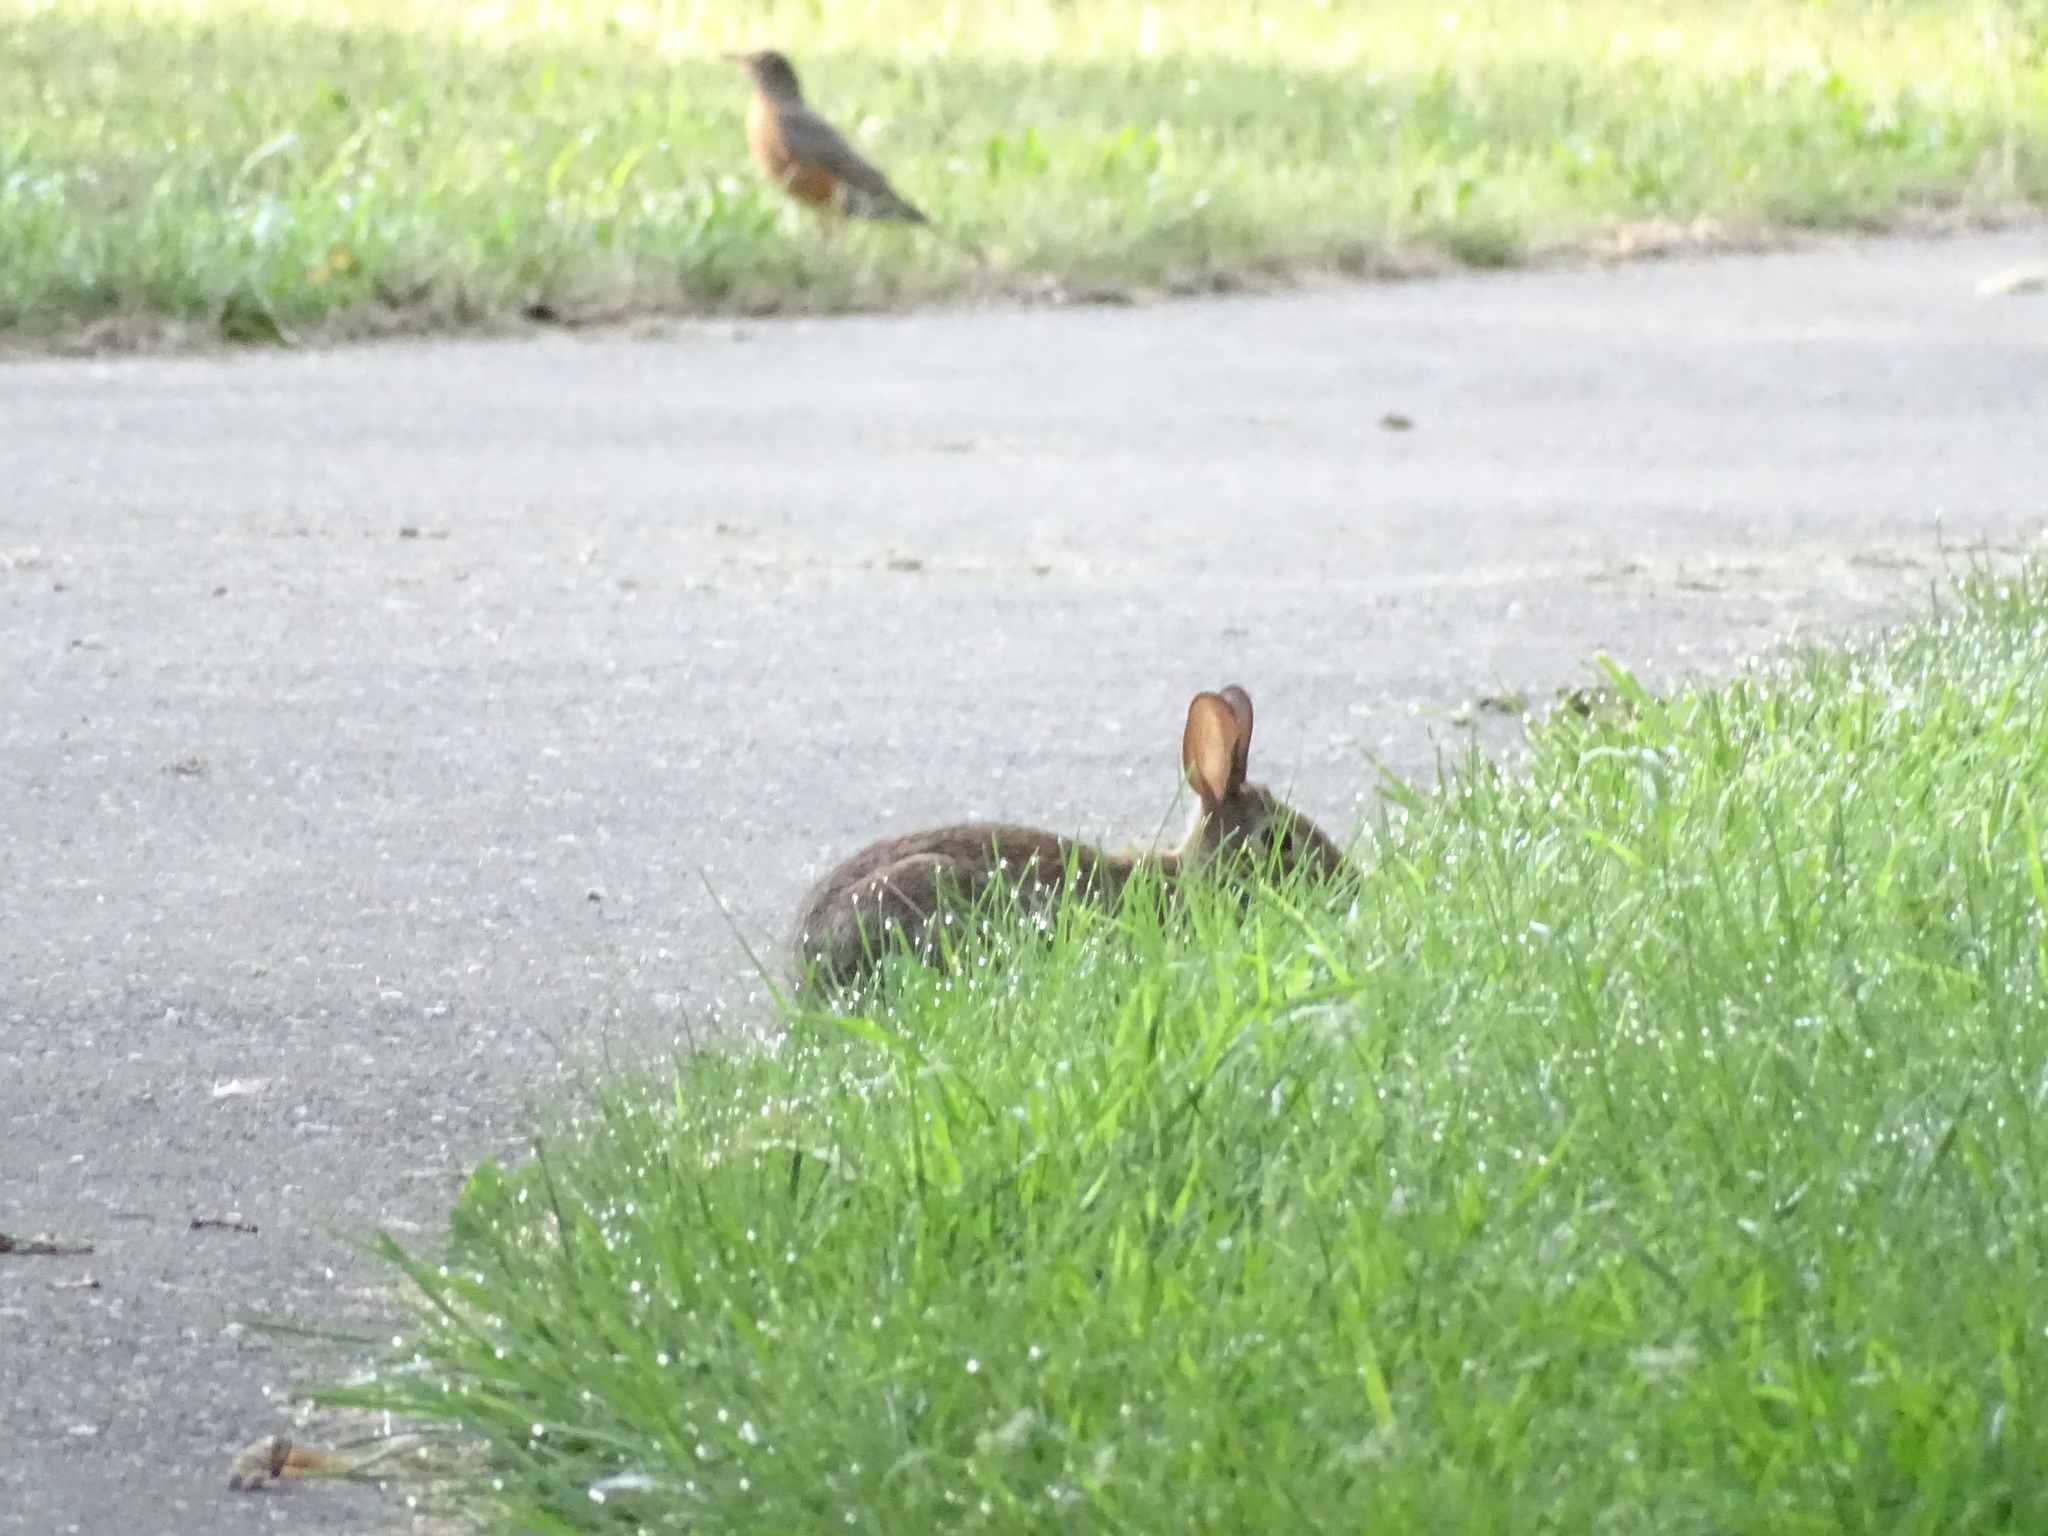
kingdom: Animalia
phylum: Chordata
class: Mammalia
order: Lagomorpha
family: Leporidae
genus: Sylvilagus
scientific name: Sylvilagus floridanus
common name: Eastern cottontail
